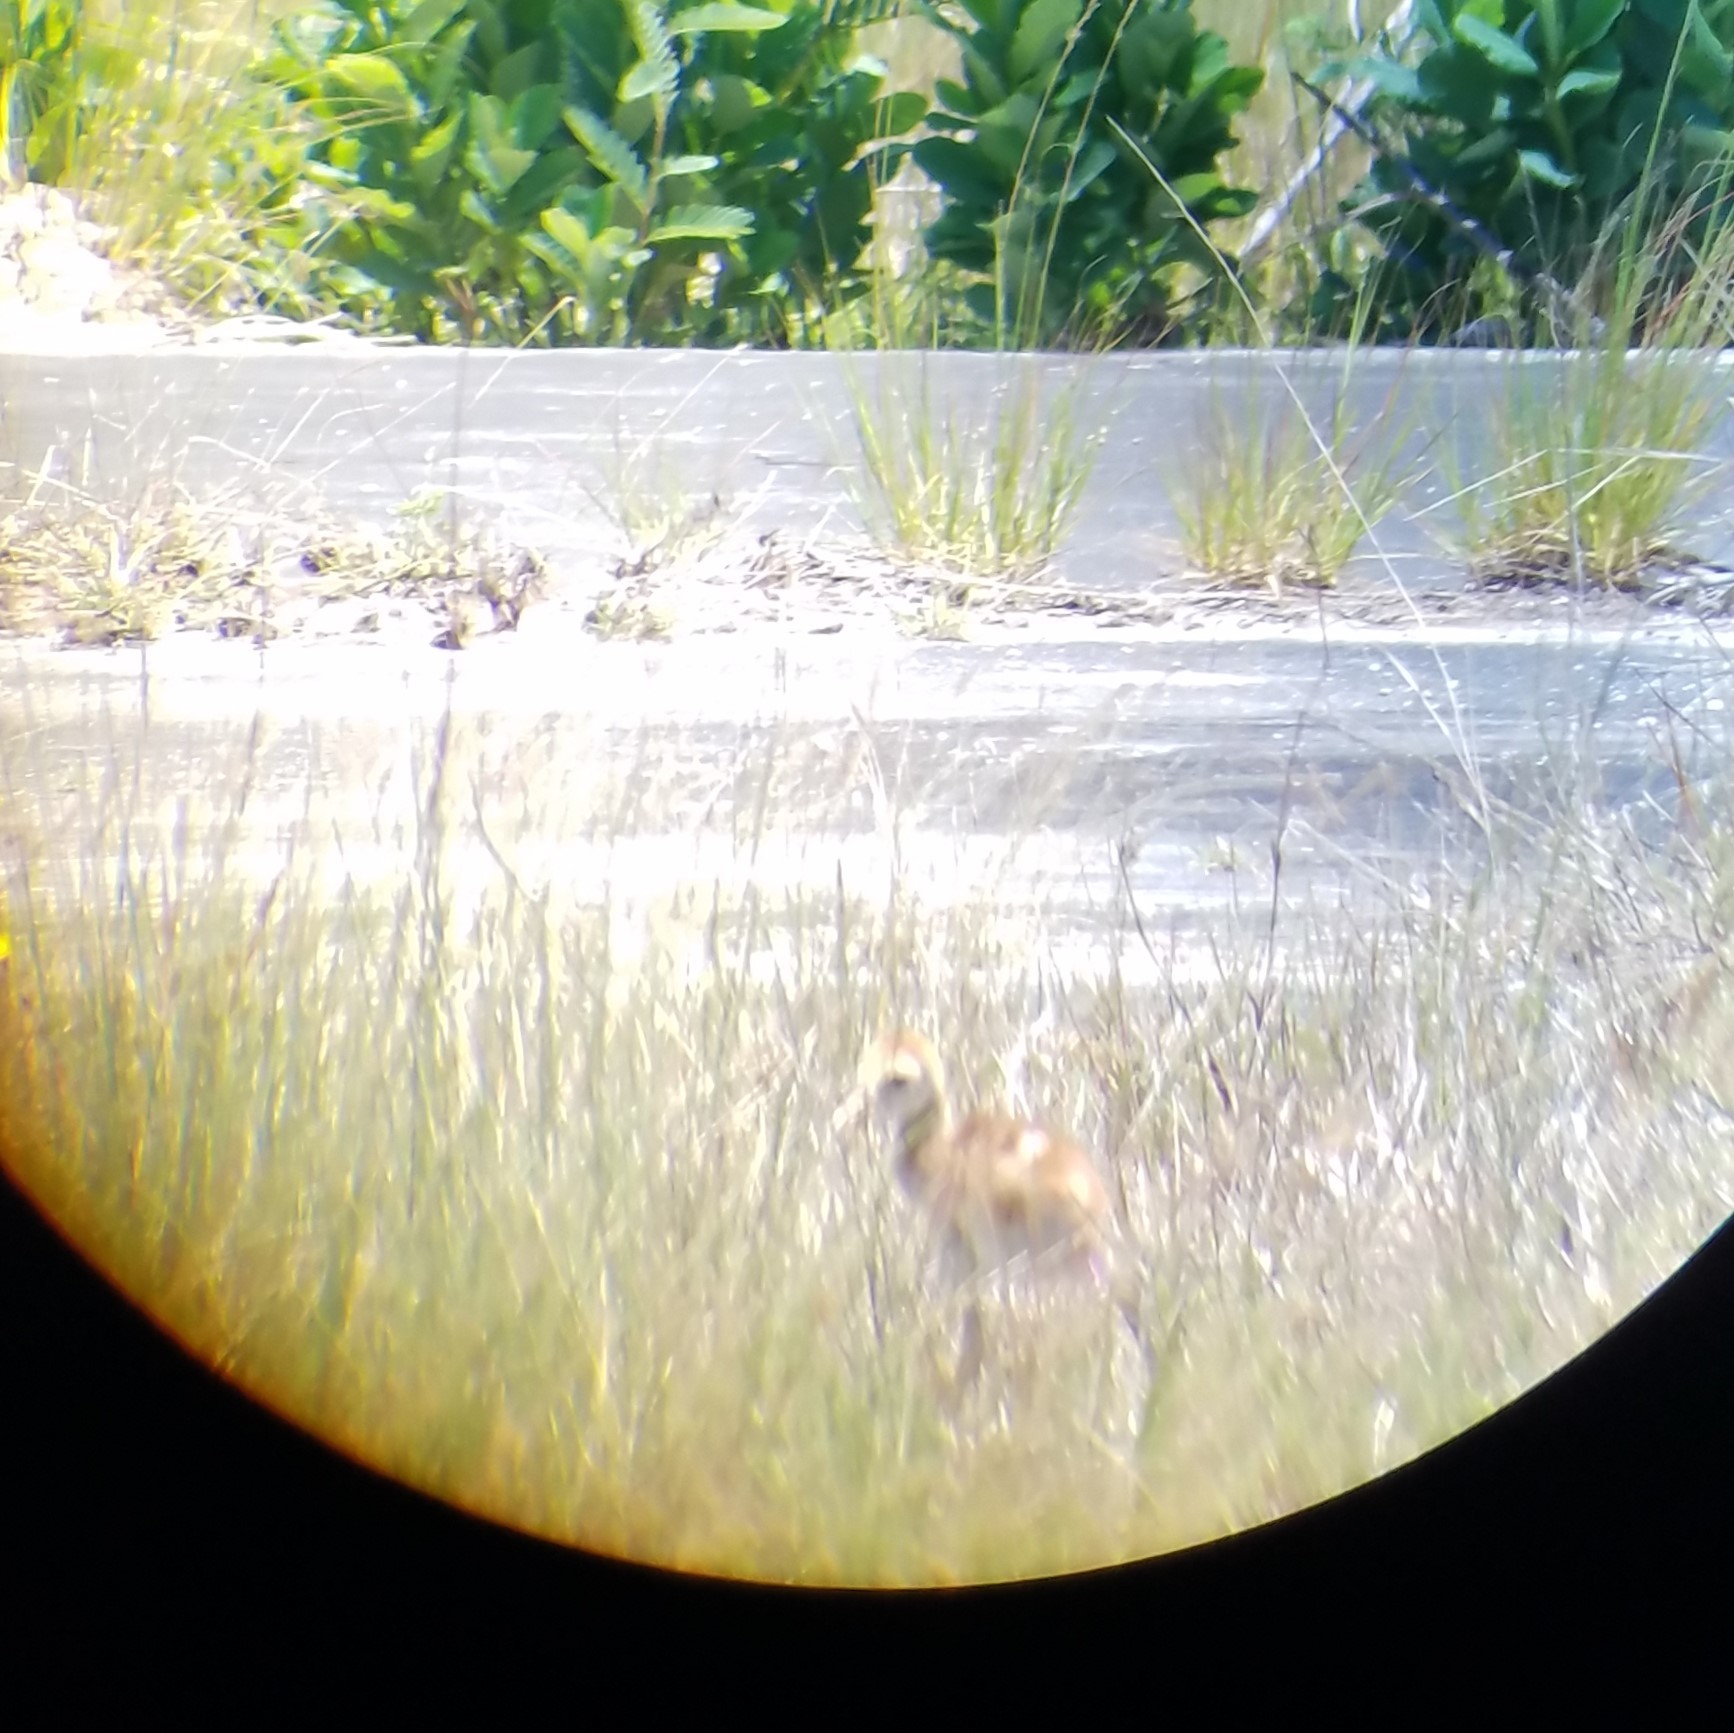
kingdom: Animalia
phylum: Chordata
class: Aves
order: Gruiformes
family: Gruidae
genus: Grus
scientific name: Grus canadensis
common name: Sandhill crane
